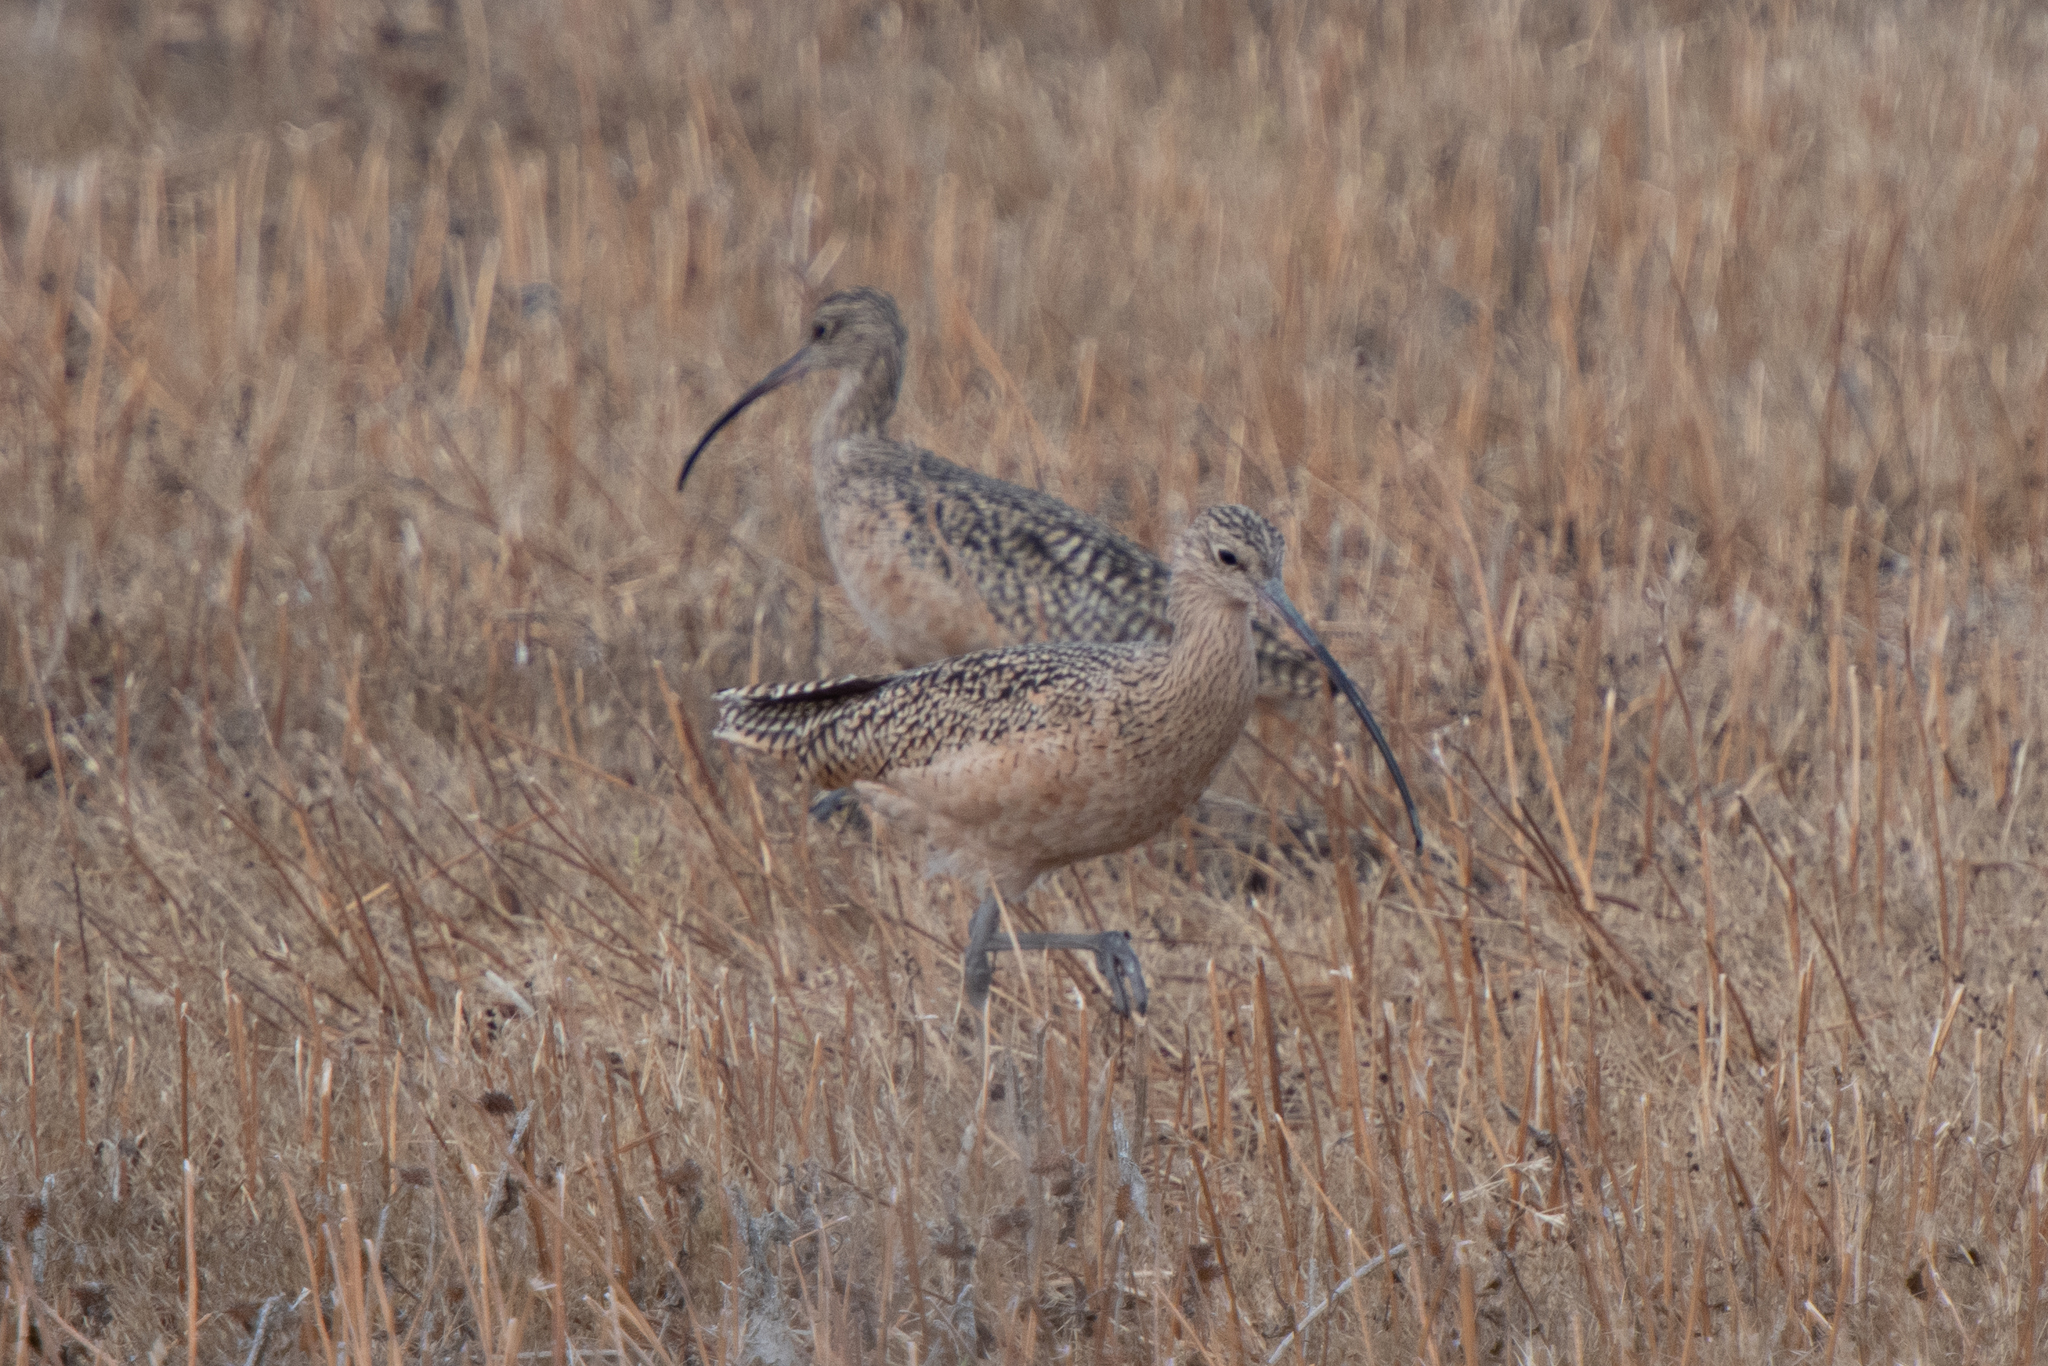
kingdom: Animalia
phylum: Chordata
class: Aves
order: Charadriiformes
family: Scolopacidae
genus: Numenius
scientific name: Numenius americanus
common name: Long-billed curlew
